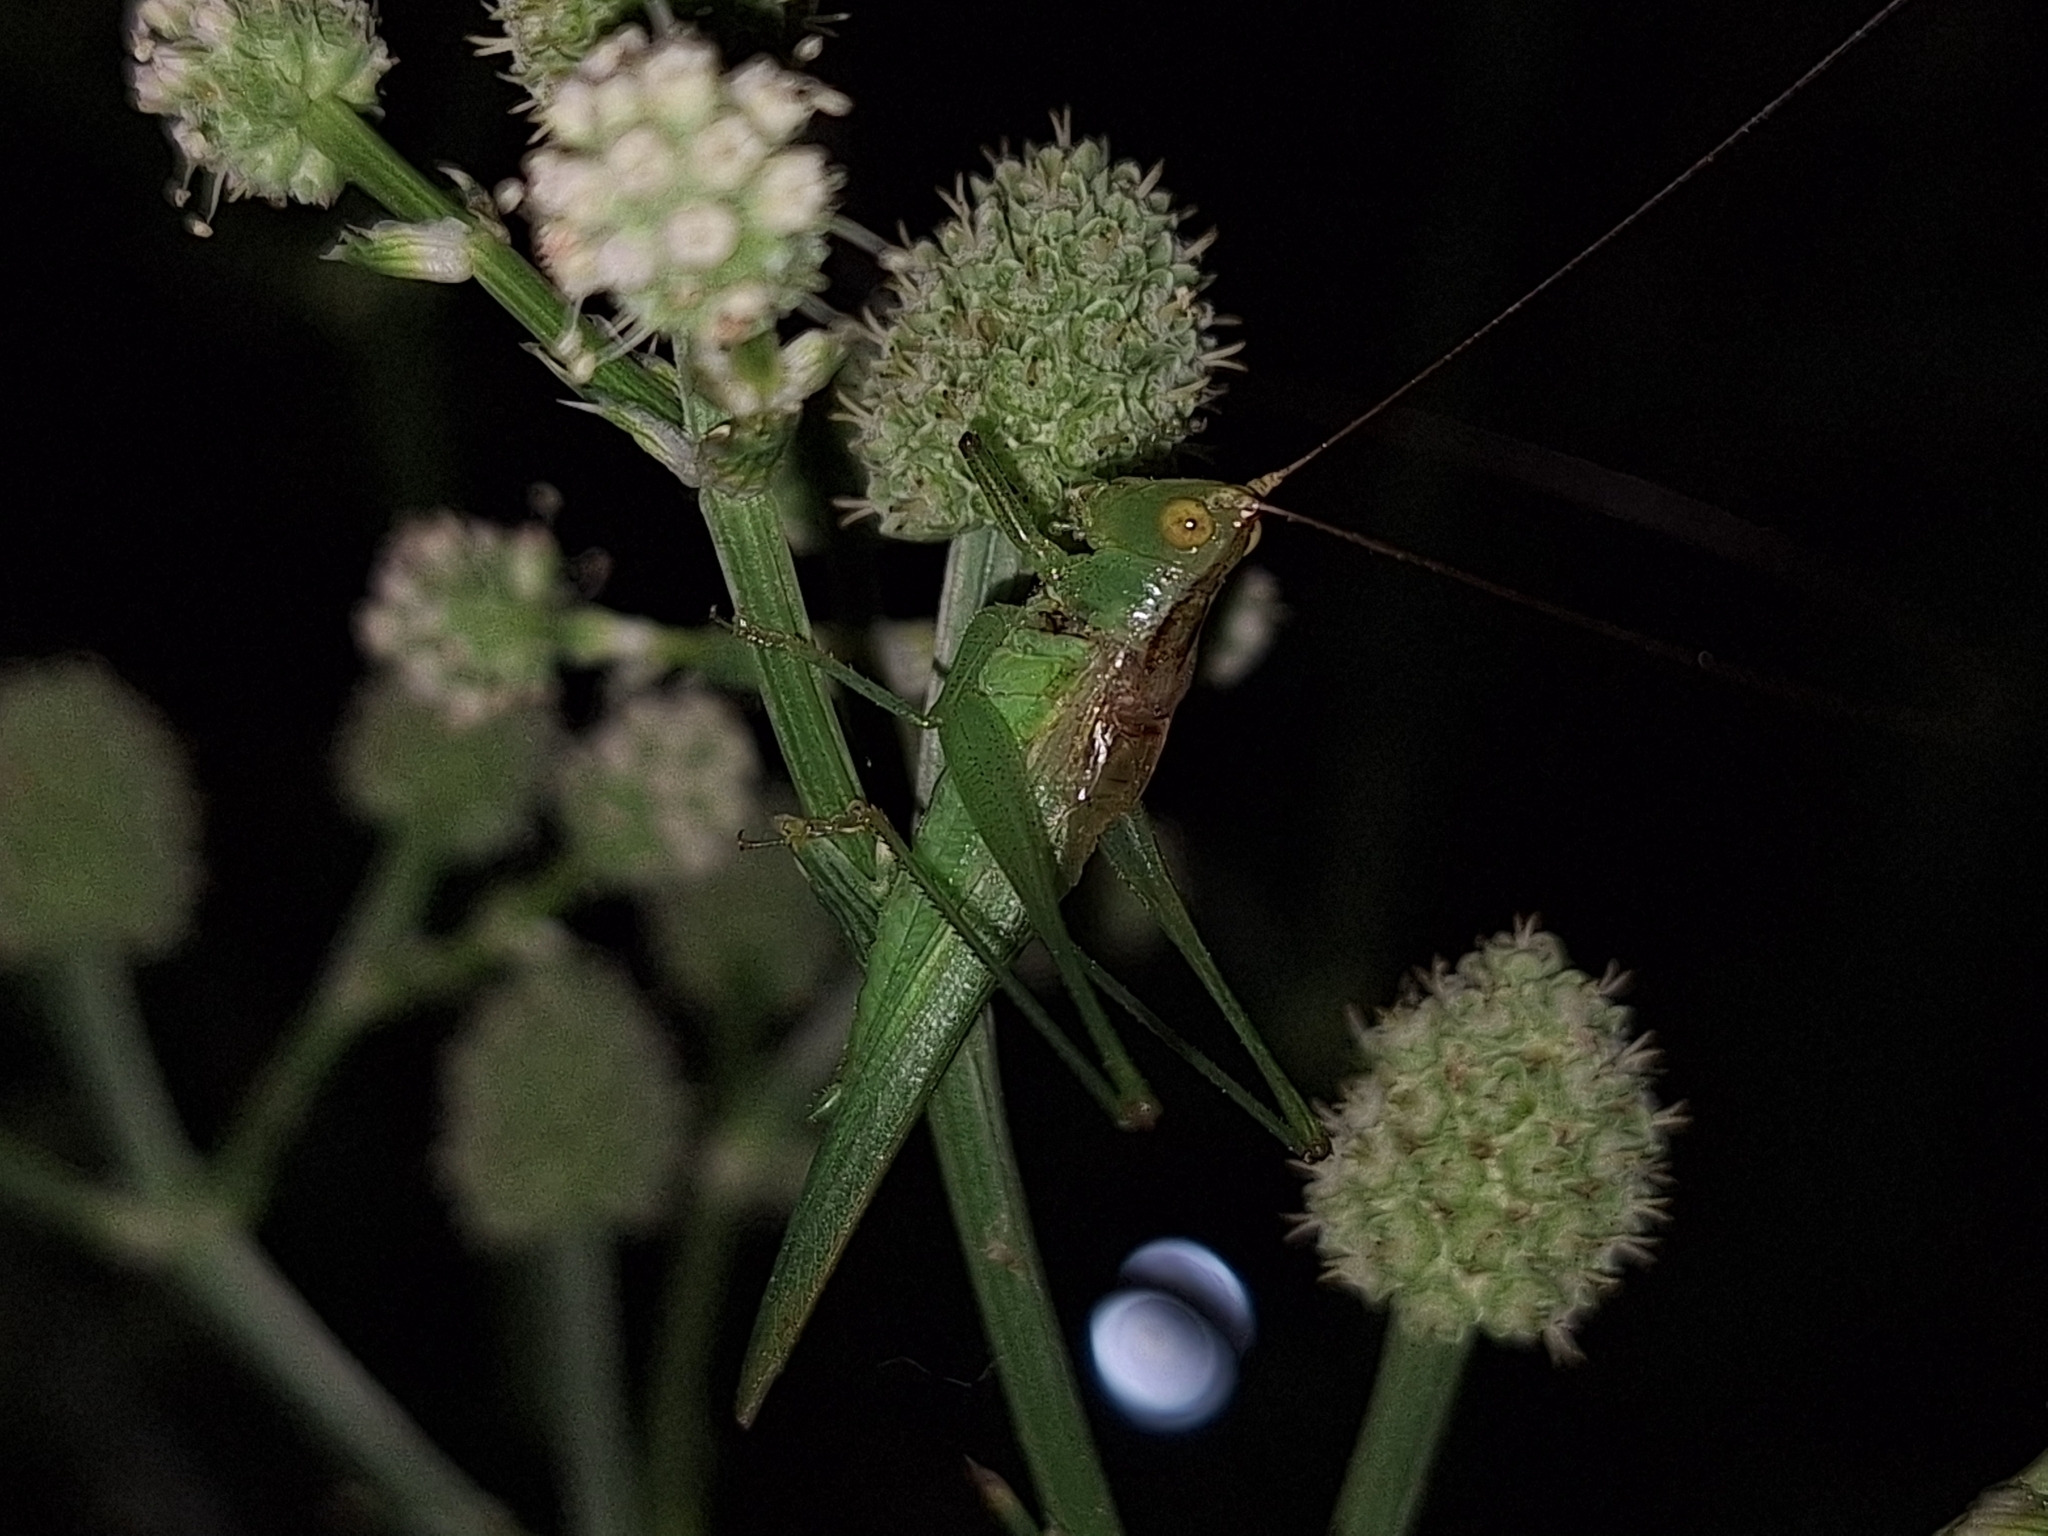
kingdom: Animalia
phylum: Arthropoda
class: Insecta
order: Orthoptera
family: Tettigoniidae
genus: Conocephalus
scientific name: Conocephalus longipes
